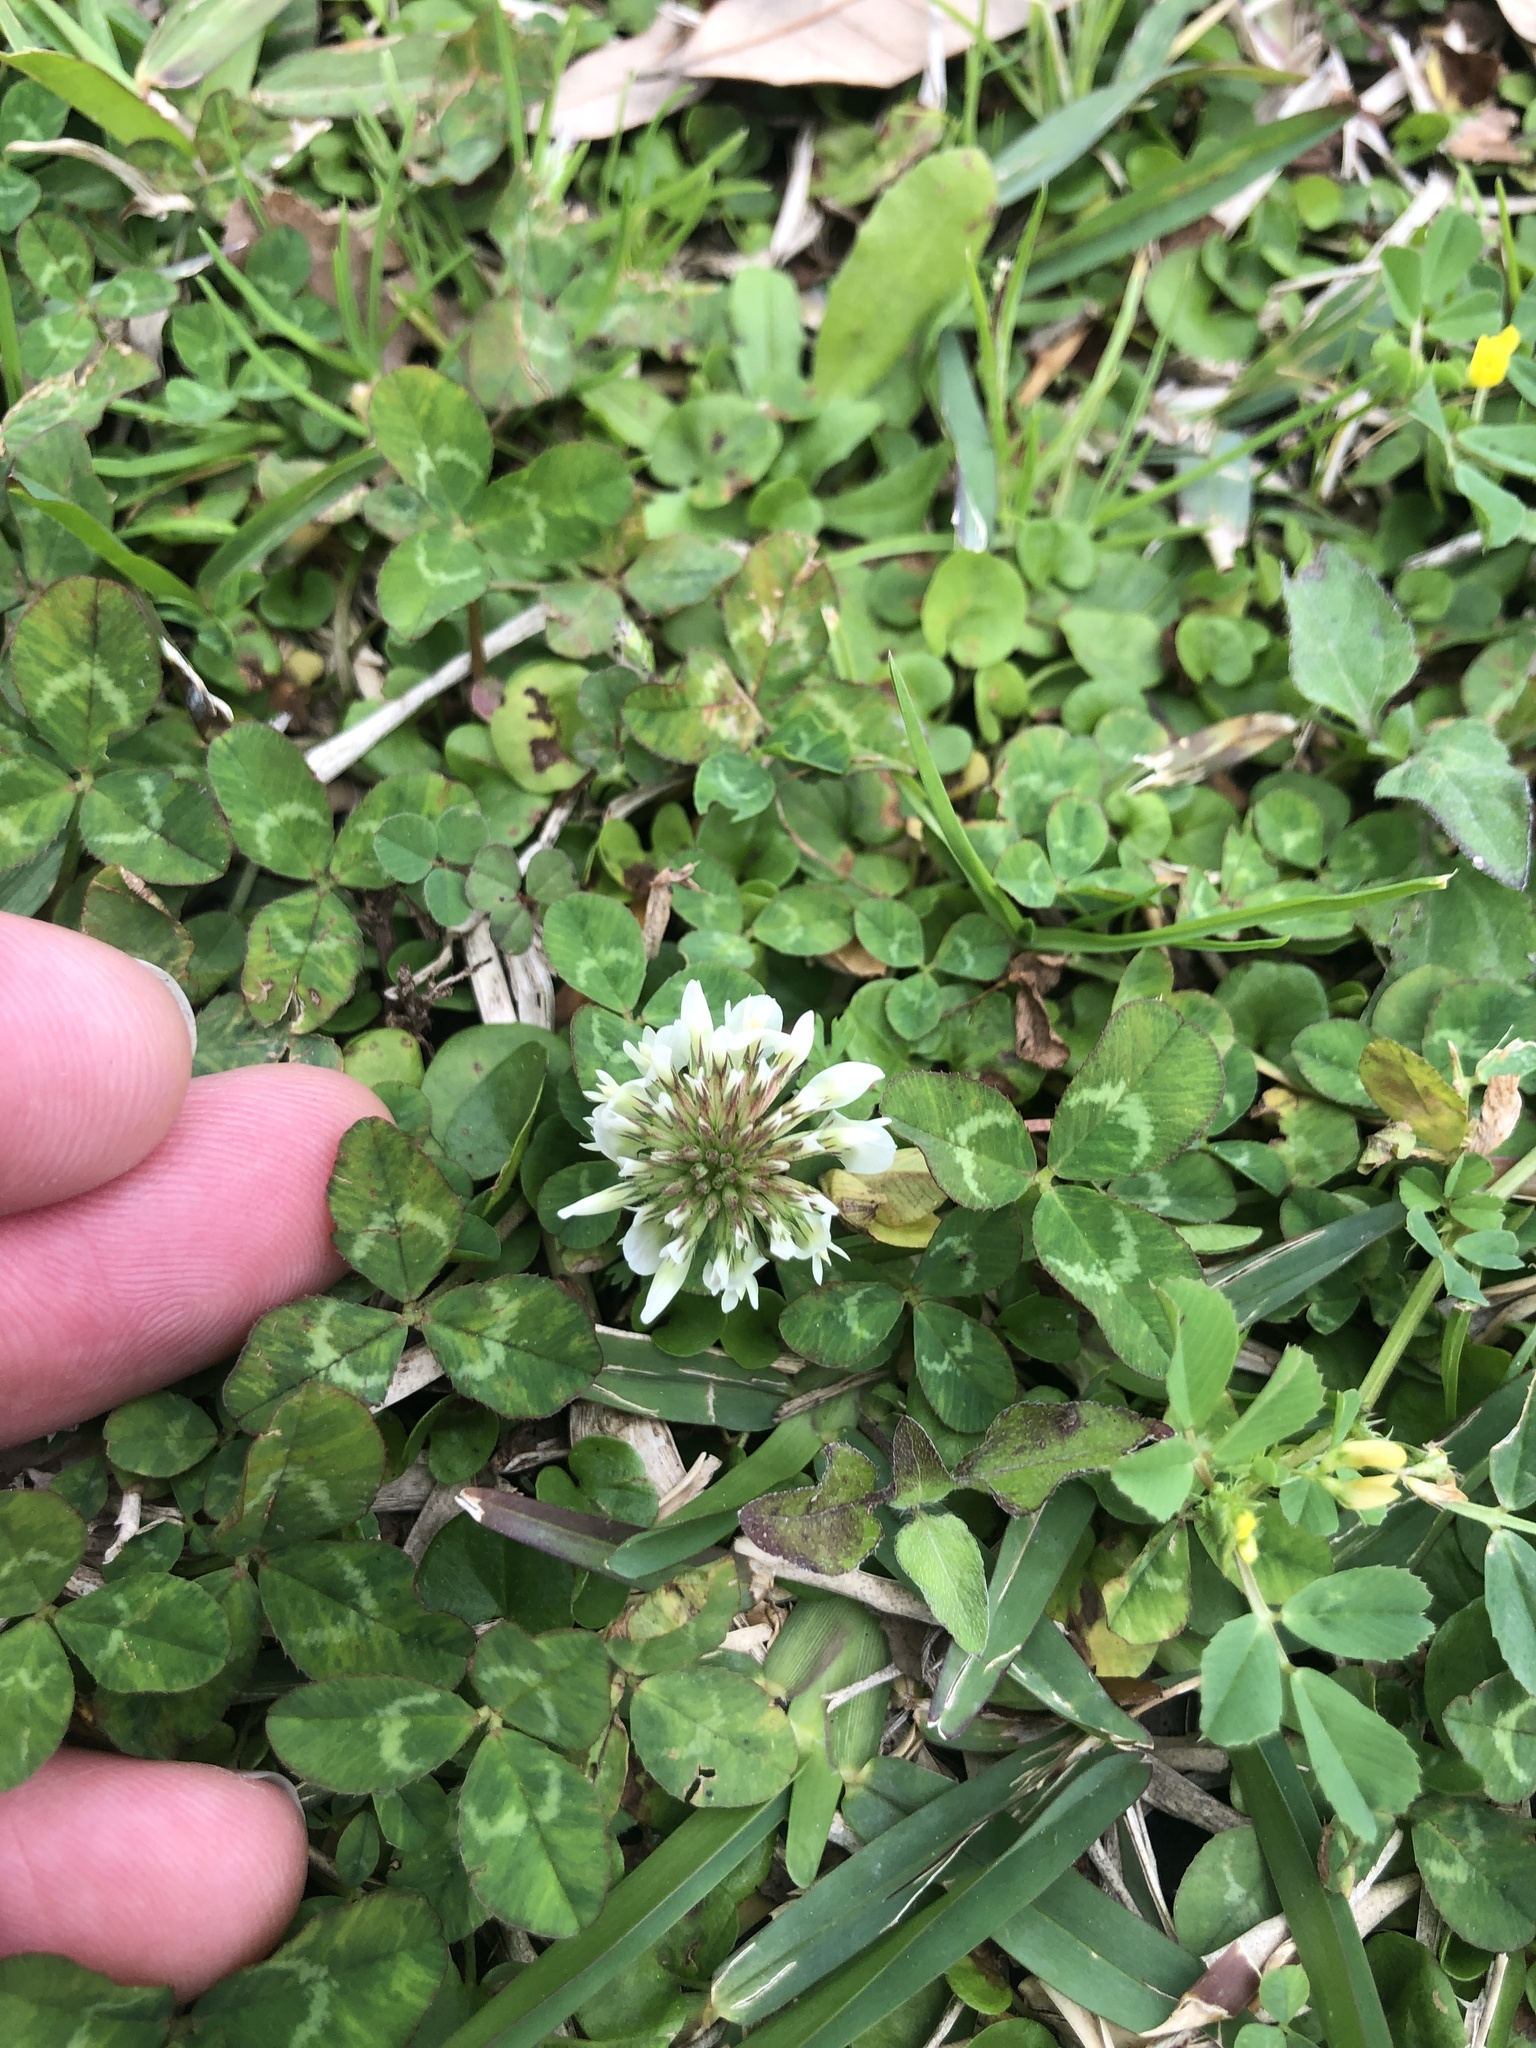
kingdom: Plantae
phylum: Tracheophyta
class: Magnoliopsida
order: Fabales
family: Fabaceae
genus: Trifolium
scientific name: Trifolium repens
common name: White clover
